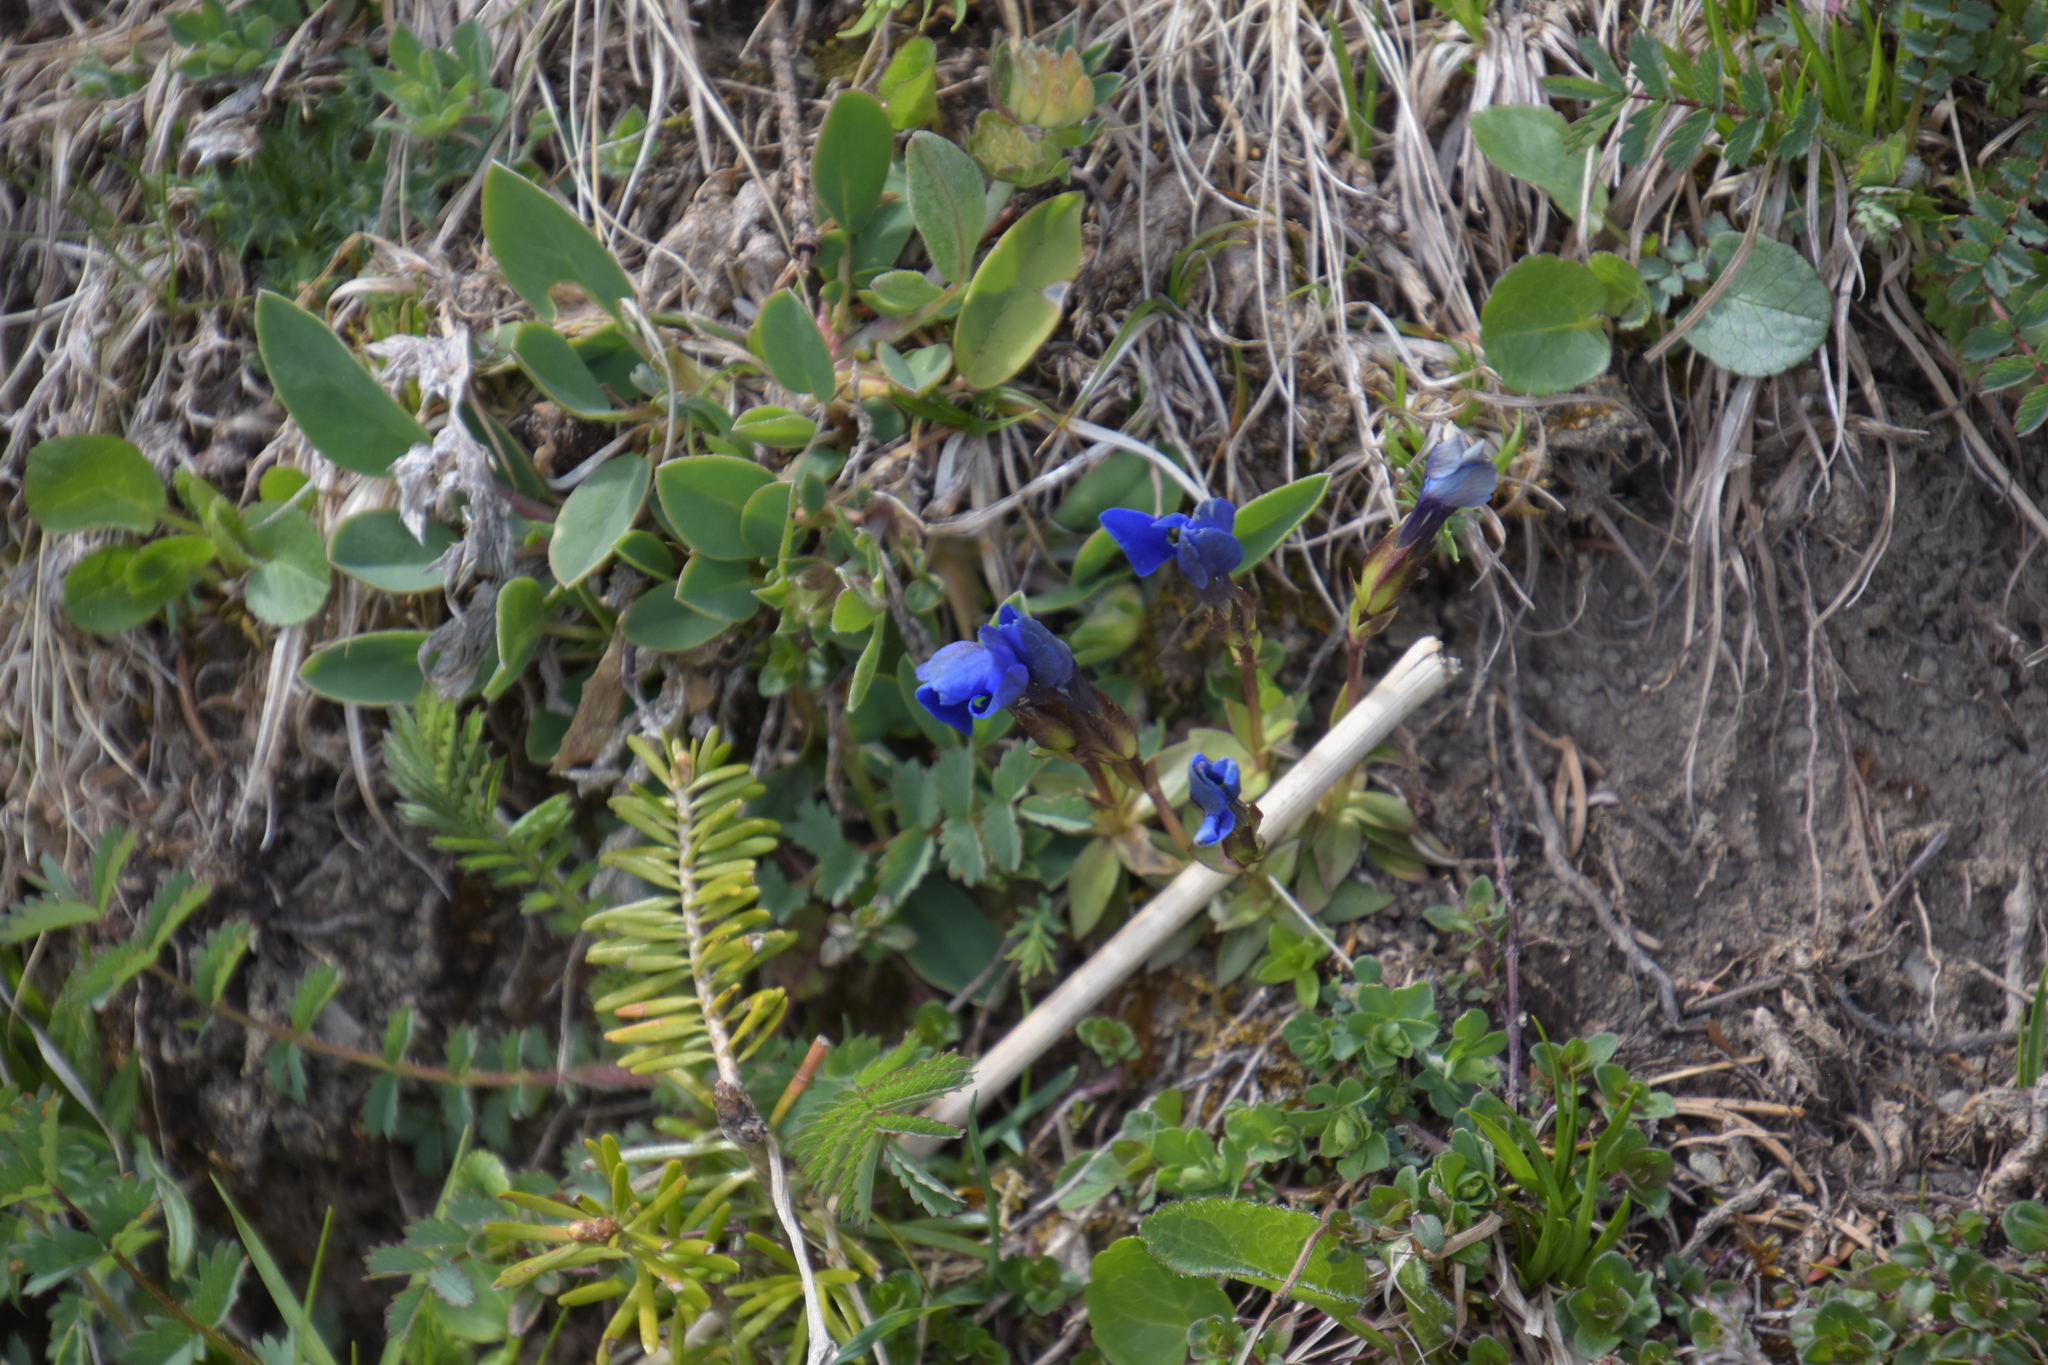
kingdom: Plantae
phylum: Tracheophyta
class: Magnoliopsida
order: Gentianales
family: Gentianaceae
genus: Gentiana
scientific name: Gentiana verna
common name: Spring gentian
